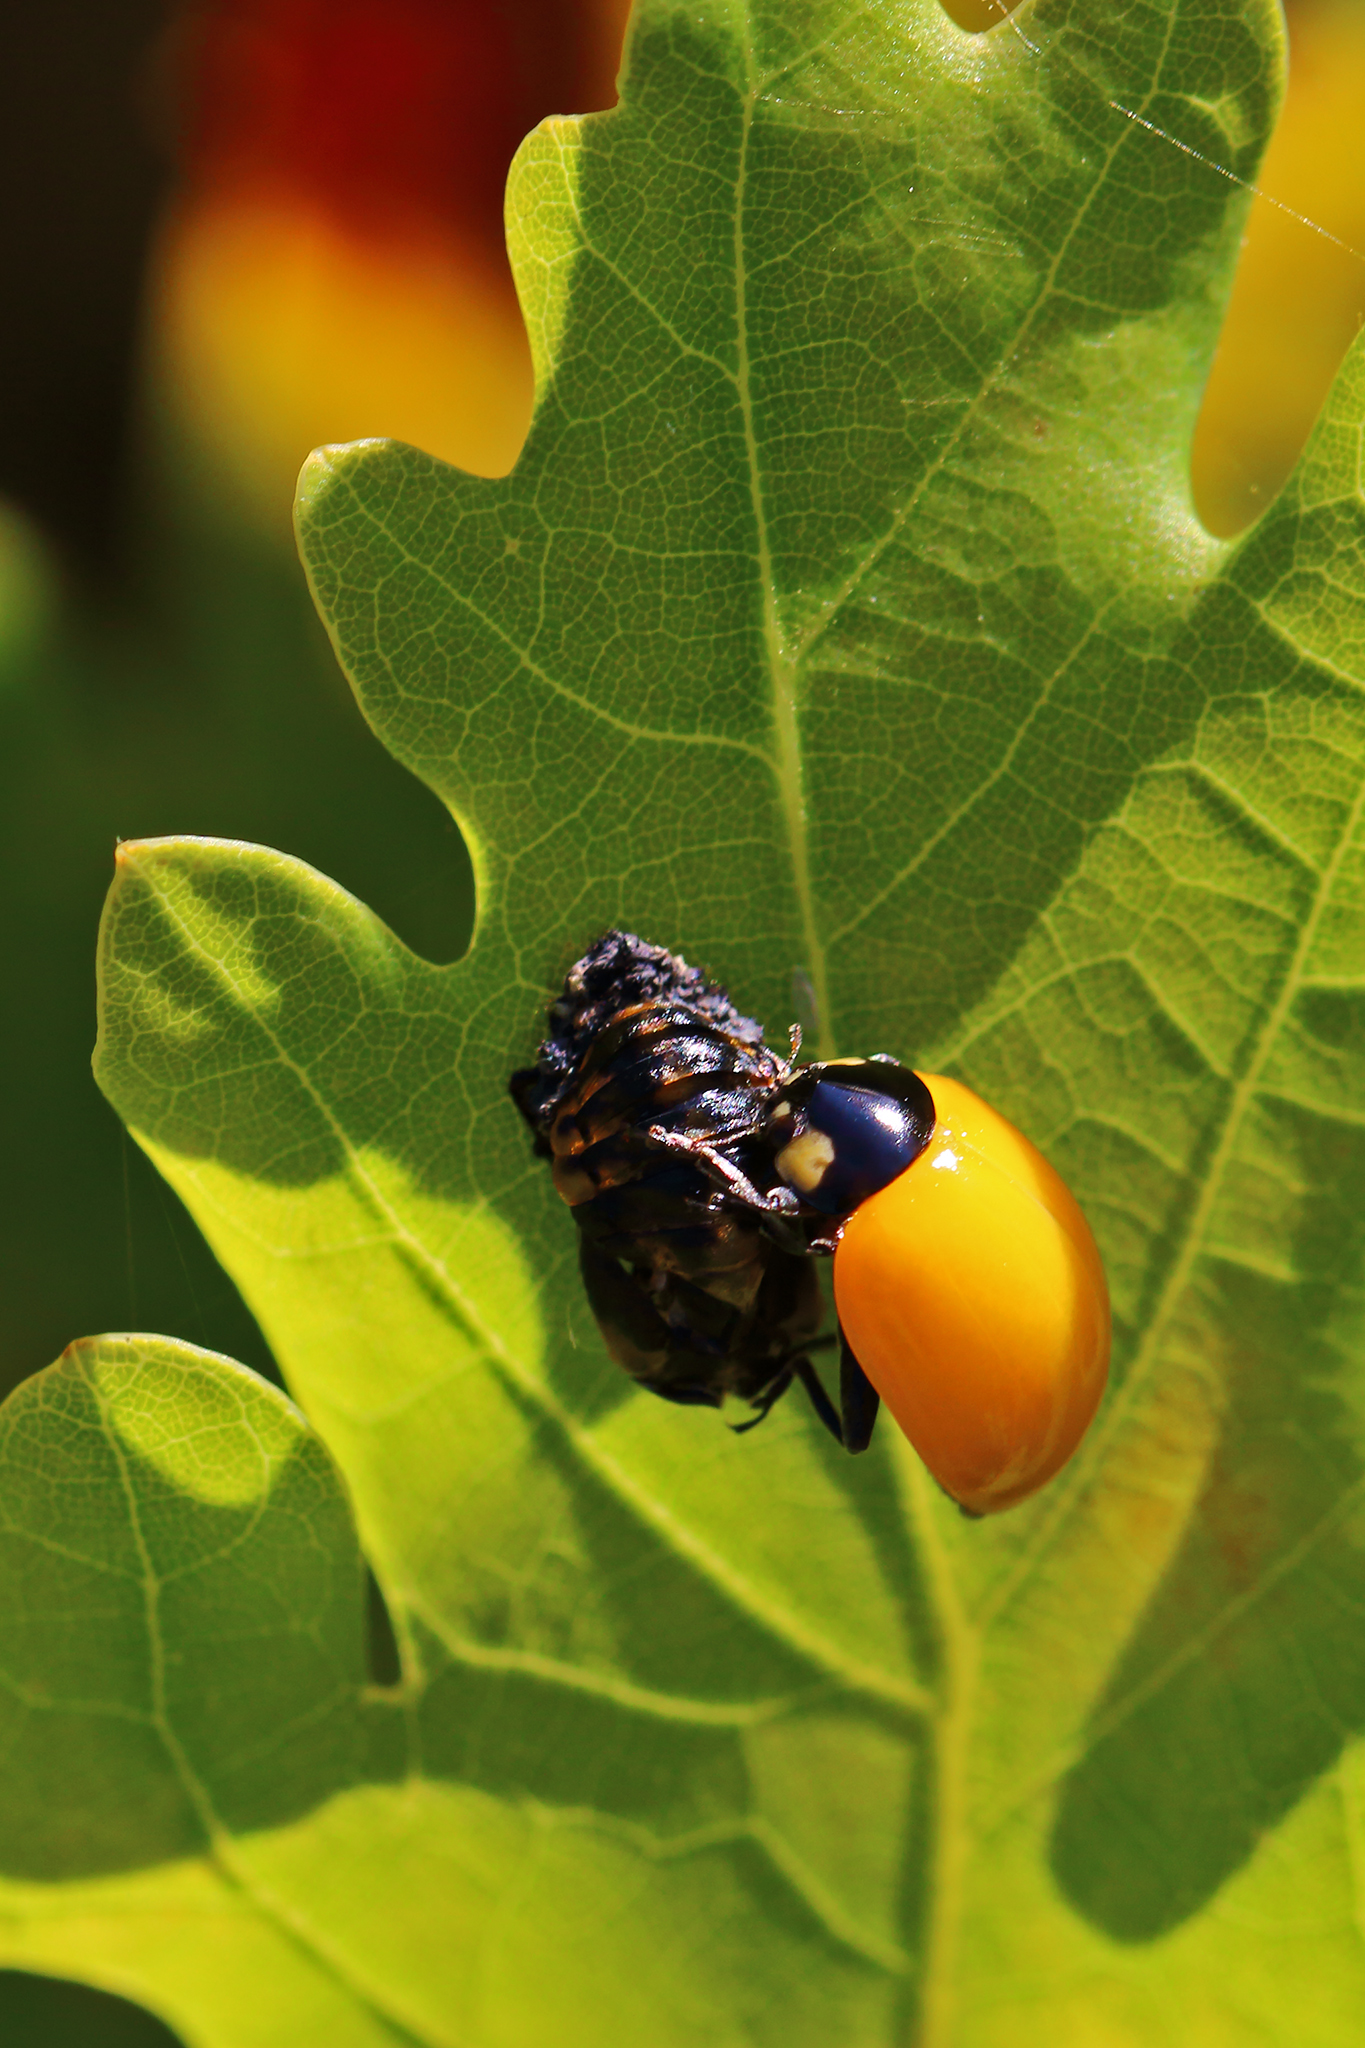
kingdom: Animalia
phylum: Arthropoda
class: Insecta
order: Coleoptera
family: Coccinellidae
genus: Coccinella
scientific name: Coccinella septempunctata
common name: Sevenspotted lady beetle
